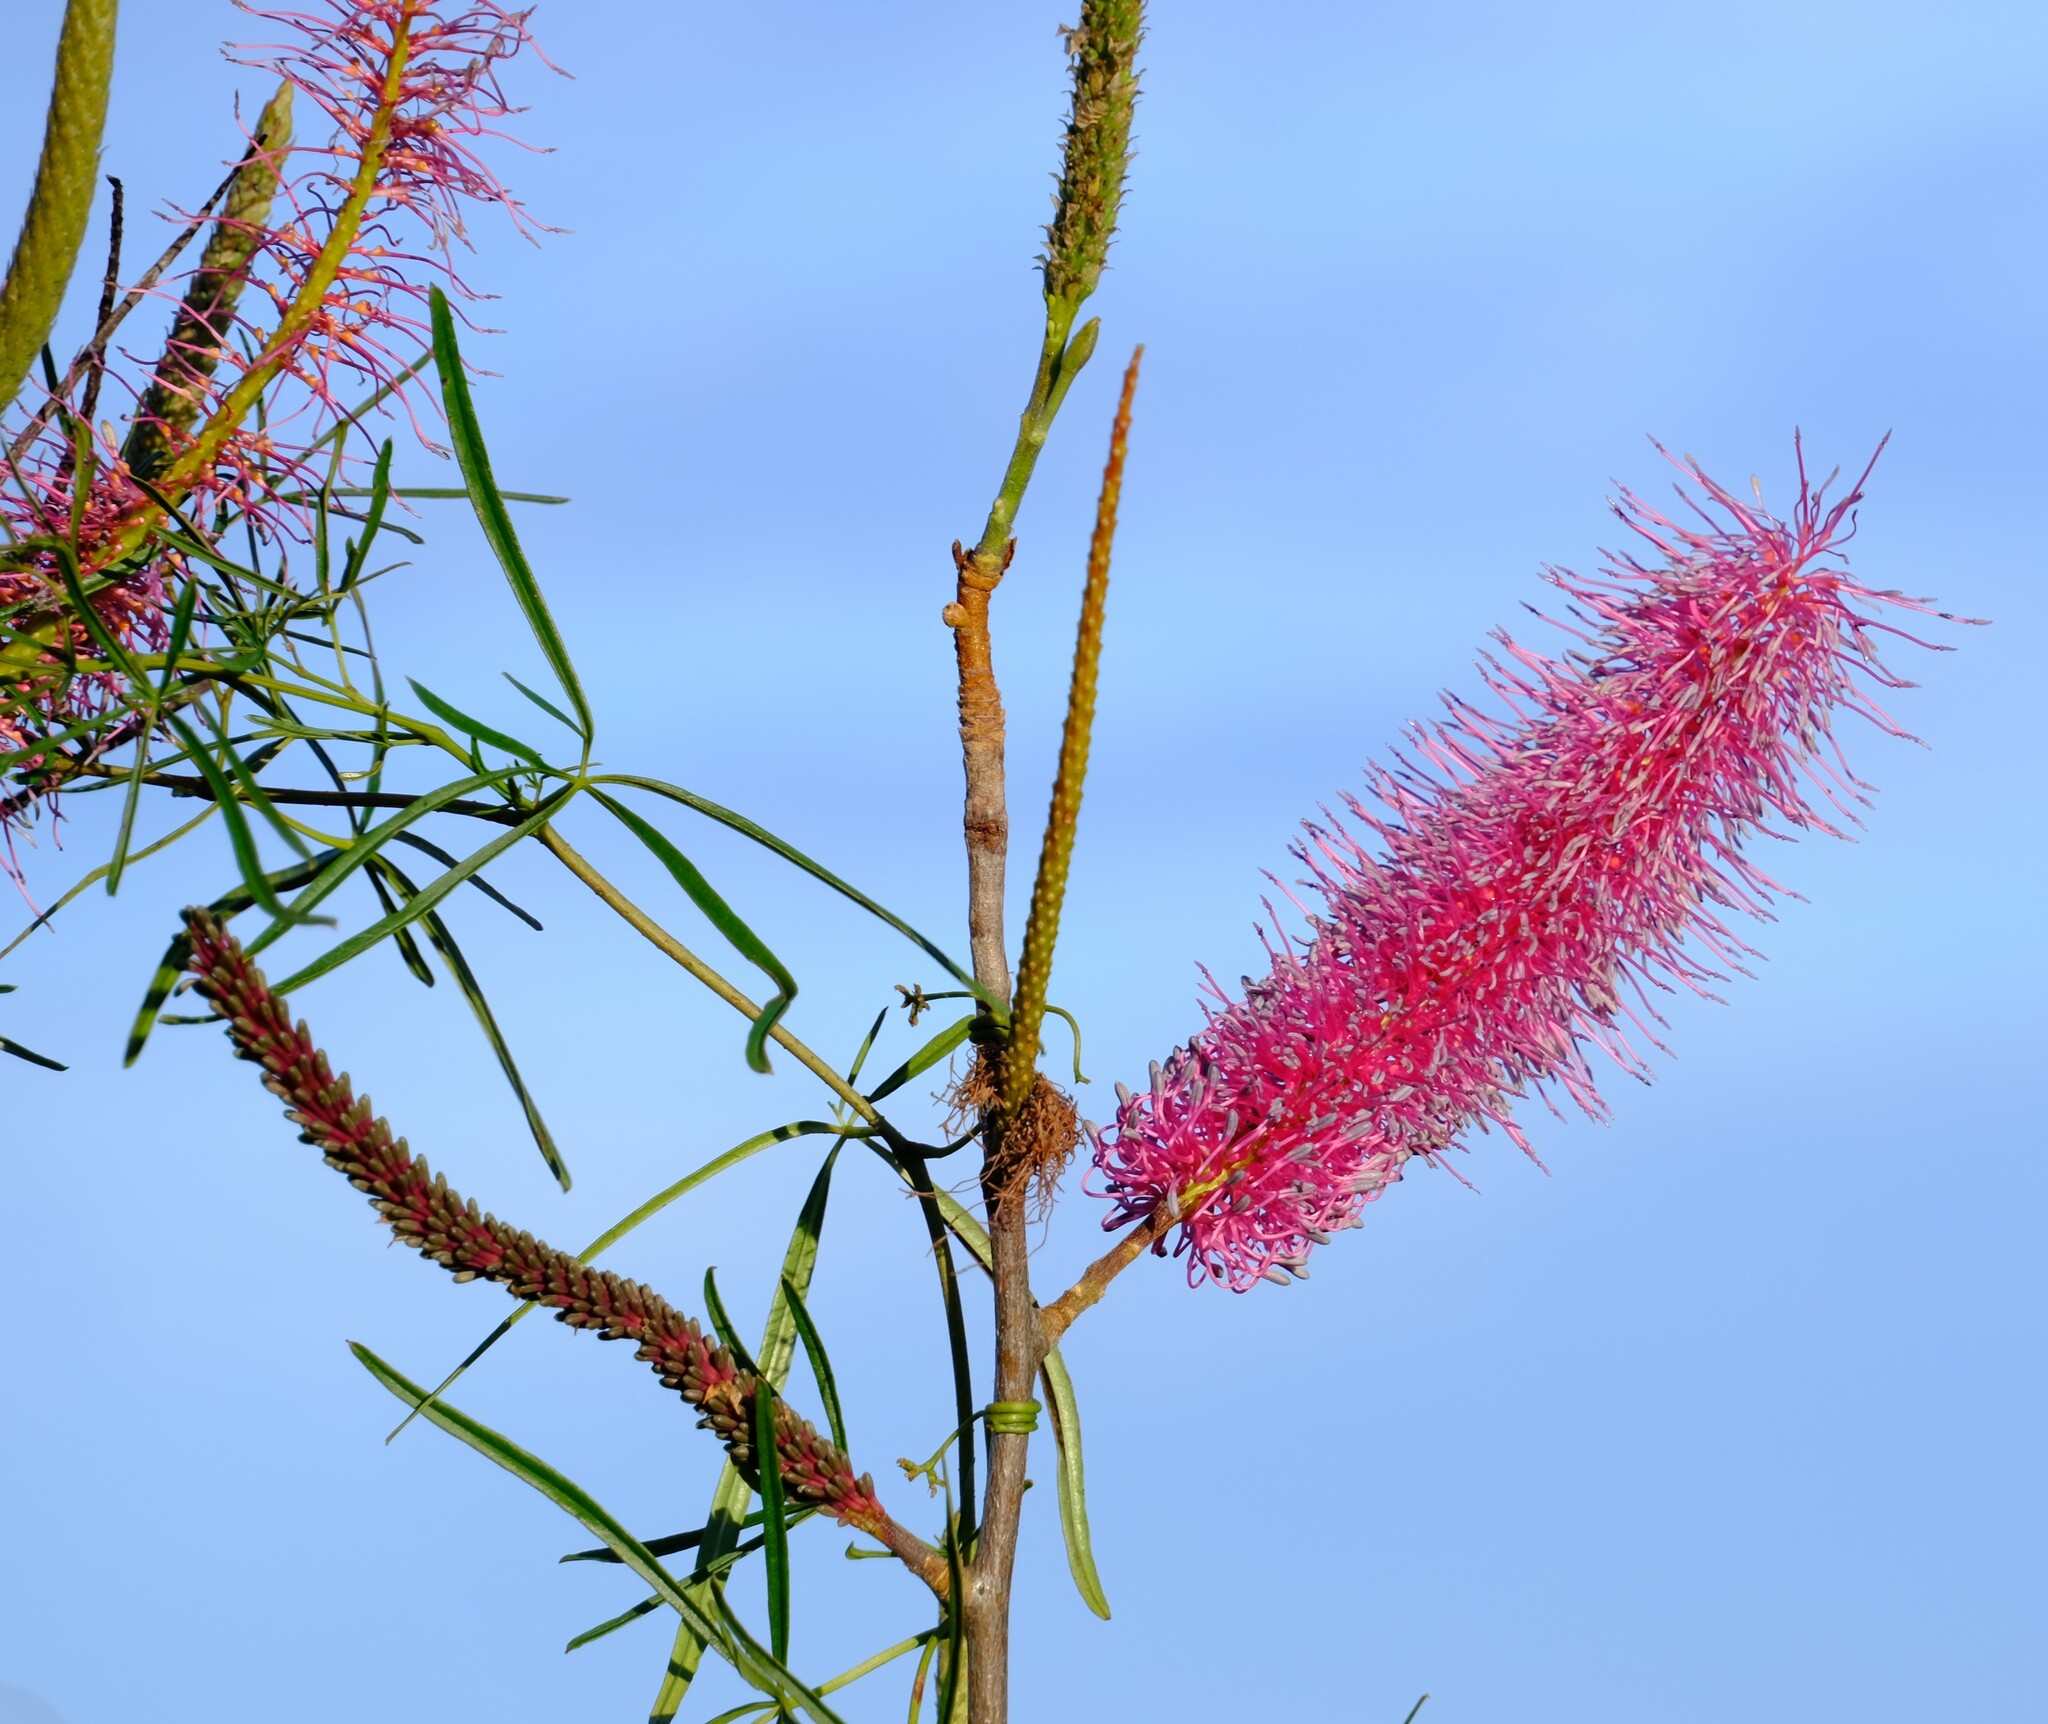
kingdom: Plantae
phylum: Tracheophyta
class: Magnoliopsida
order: Proteales
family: Proteaceae
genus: Grevillea
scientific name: Grevillea petrophiloides
